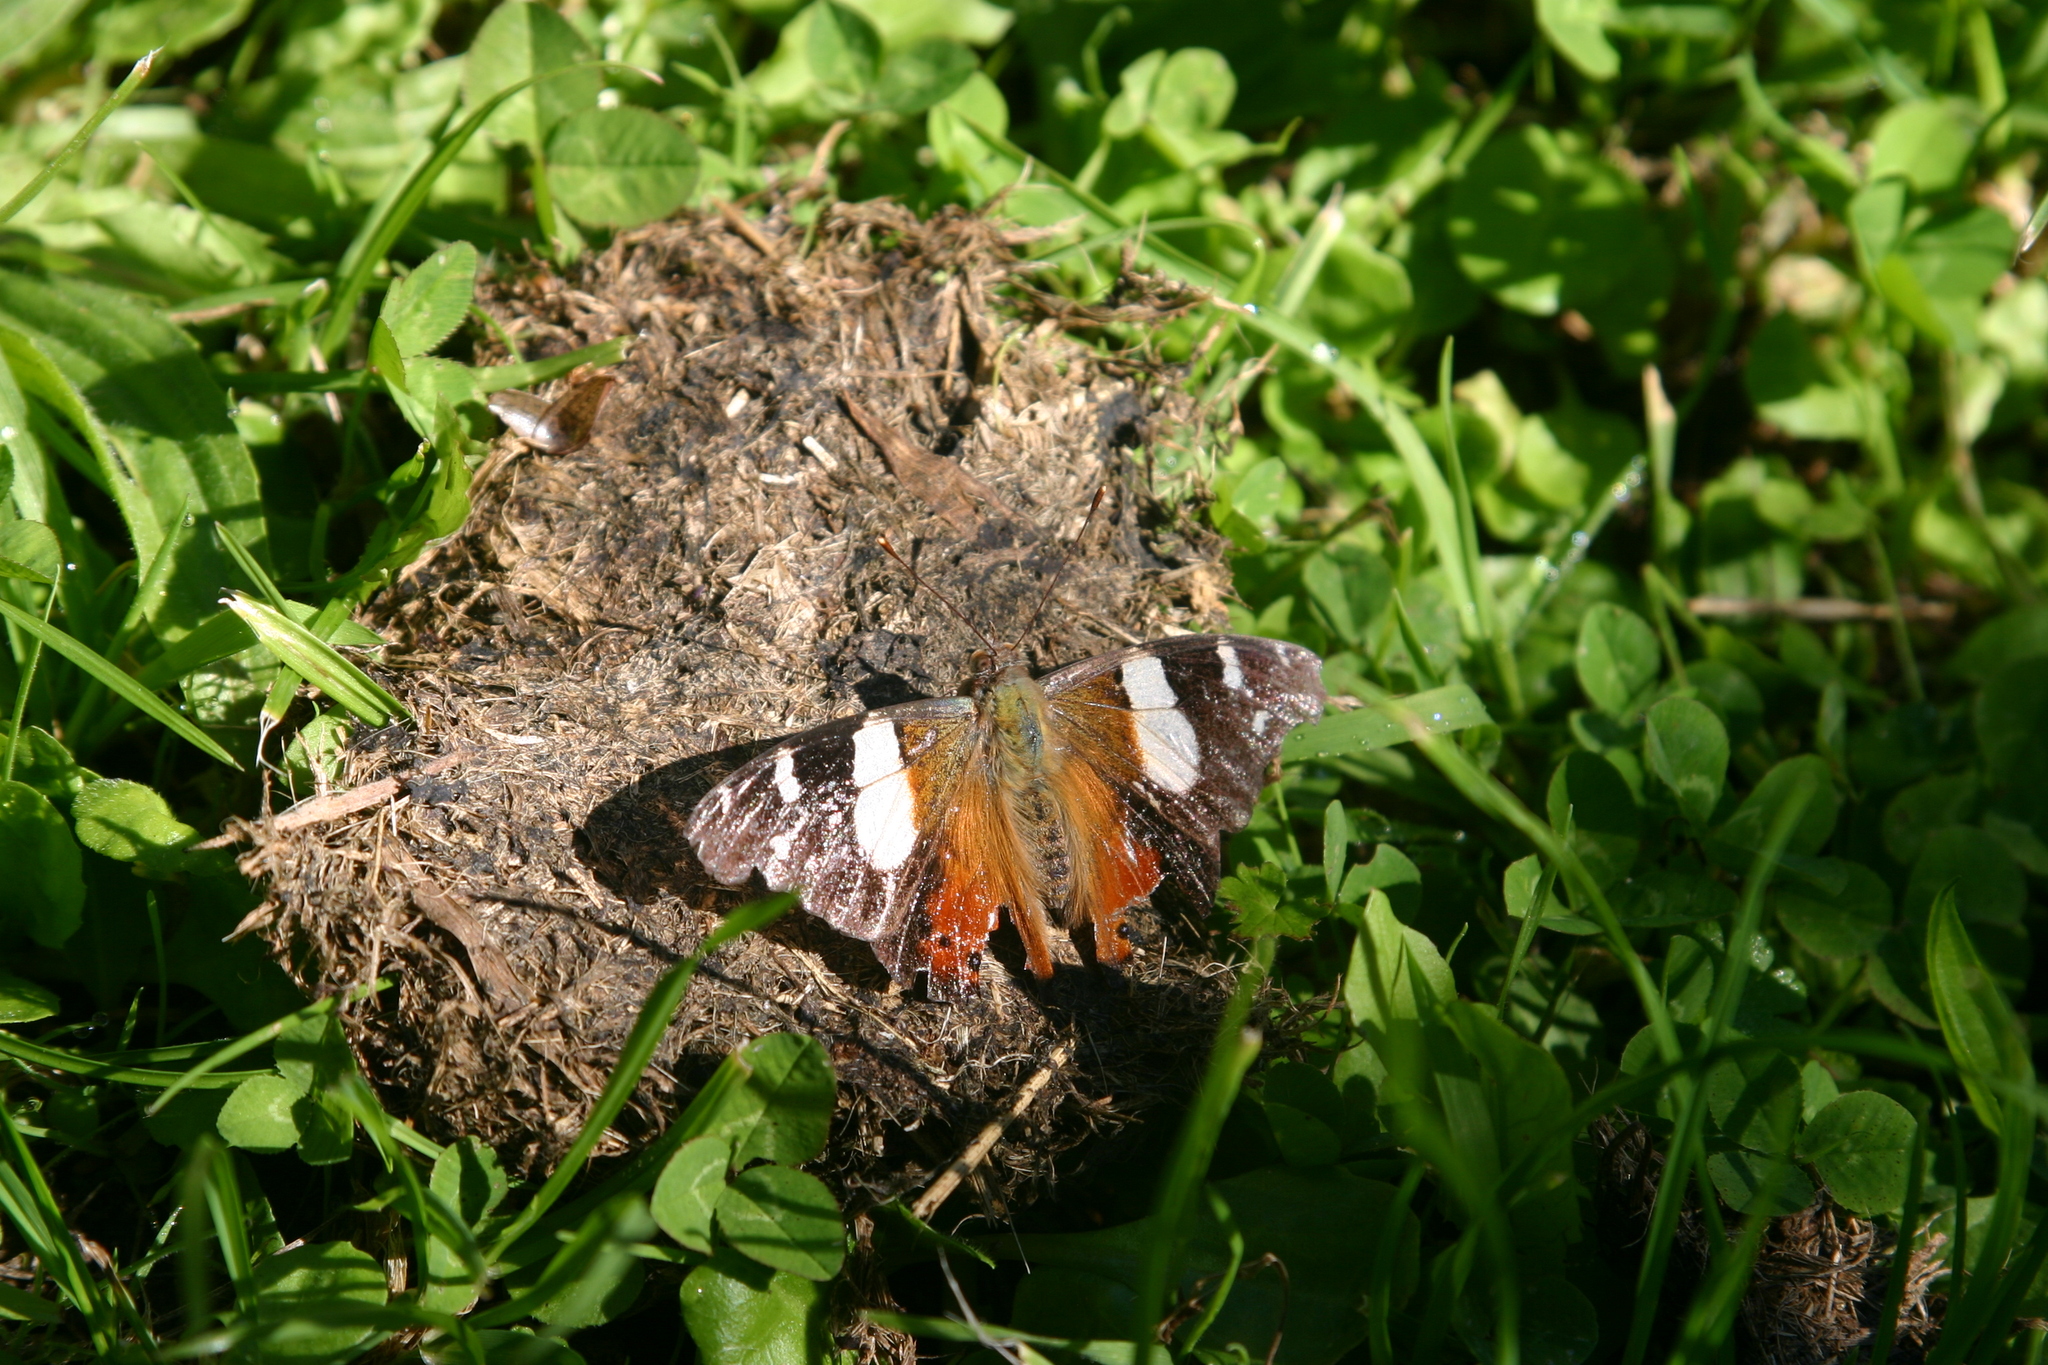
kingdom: Animalia
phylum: Arthropoda
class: Insecta
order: Lepidoptera
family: Nymphalidae
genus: Vanessa
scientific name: Vanessa itea
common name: Yellow admiral
